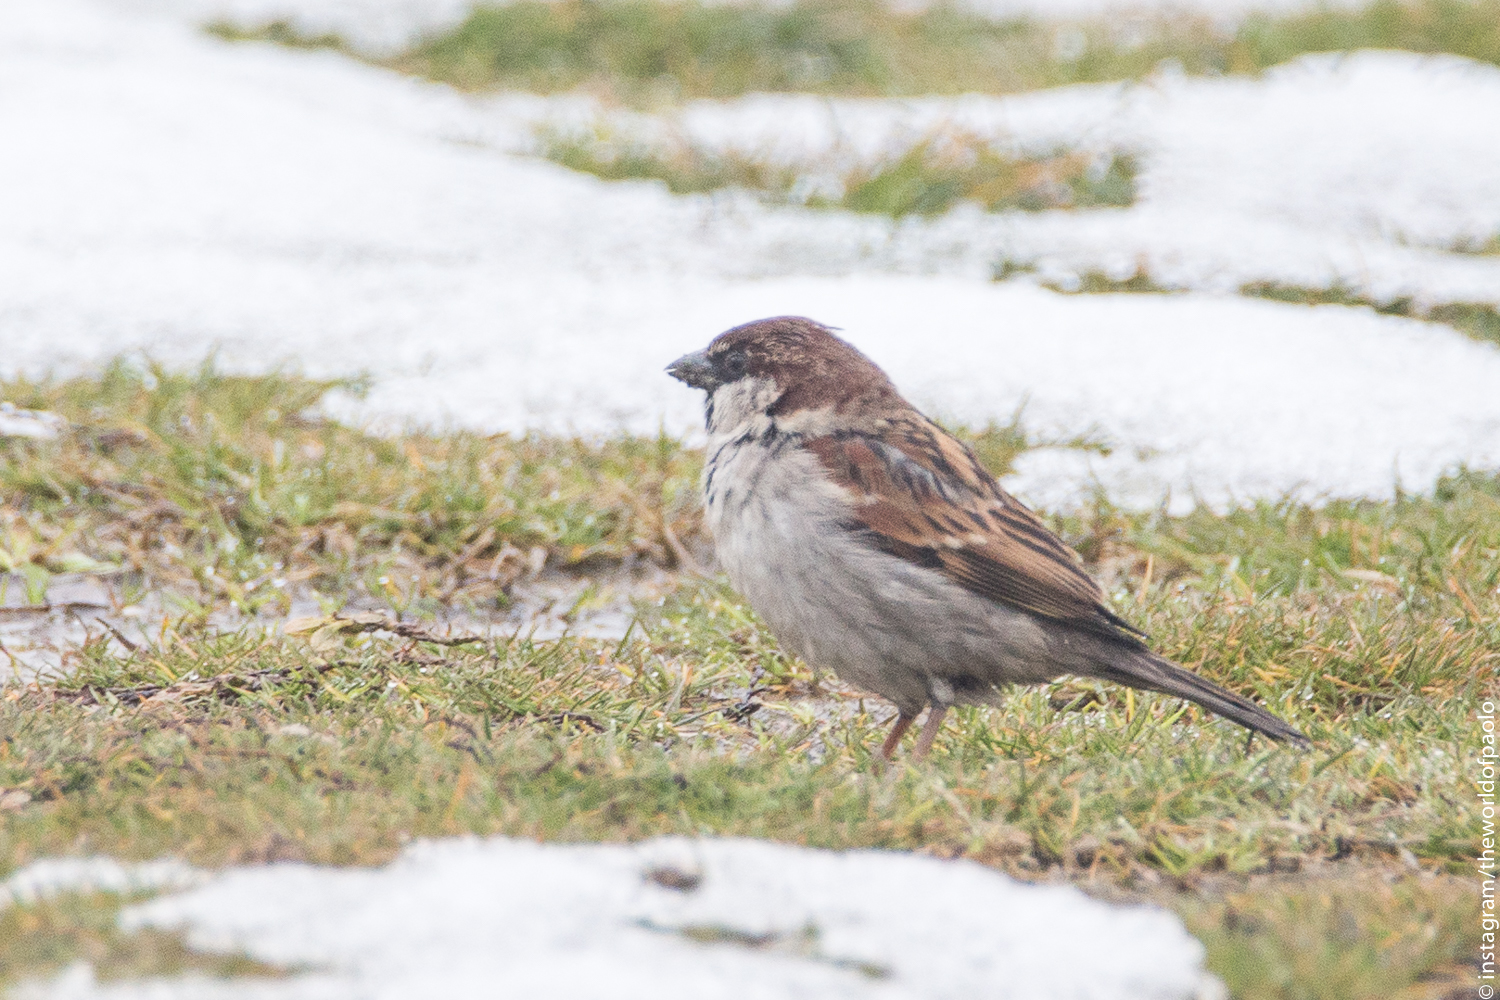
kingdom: Animalia
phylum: Chordata
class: Aves
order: Passeriformes
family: Passeridae
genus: Passer
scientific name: Passer italiae
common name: Italian sparrow
